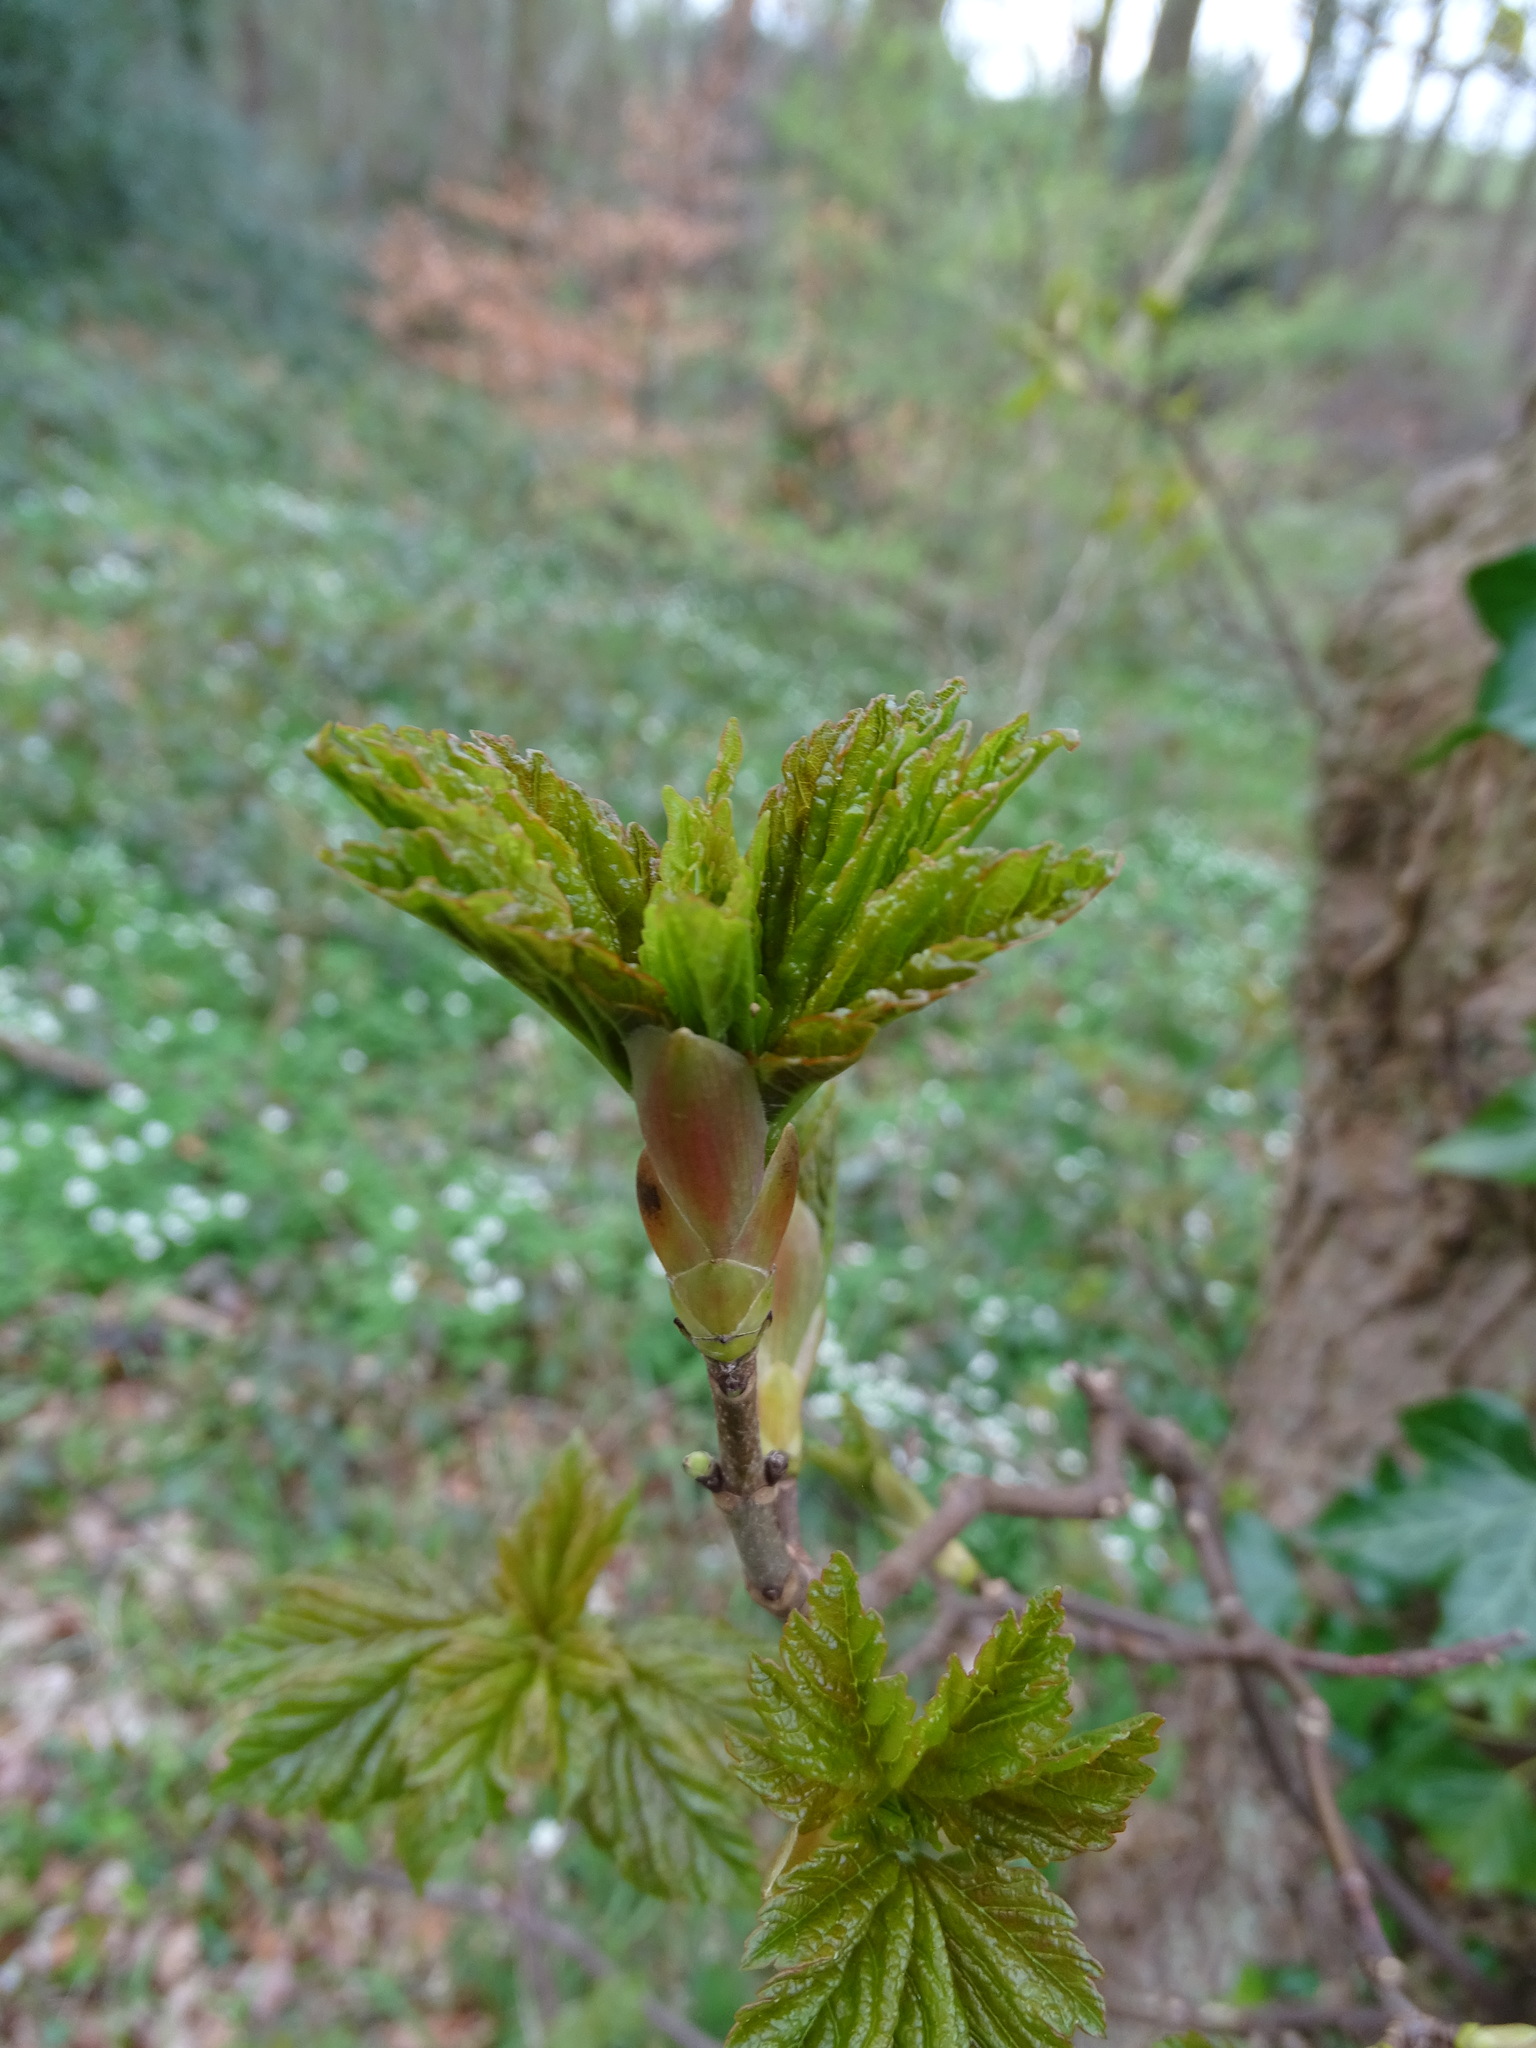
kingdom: Plantae
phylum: Tracheophyta
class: Magnoliopsida
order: Sapindales
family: Sapindaceae
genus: Acer
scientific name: Acer pseudoplatanus
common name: Sycamore
